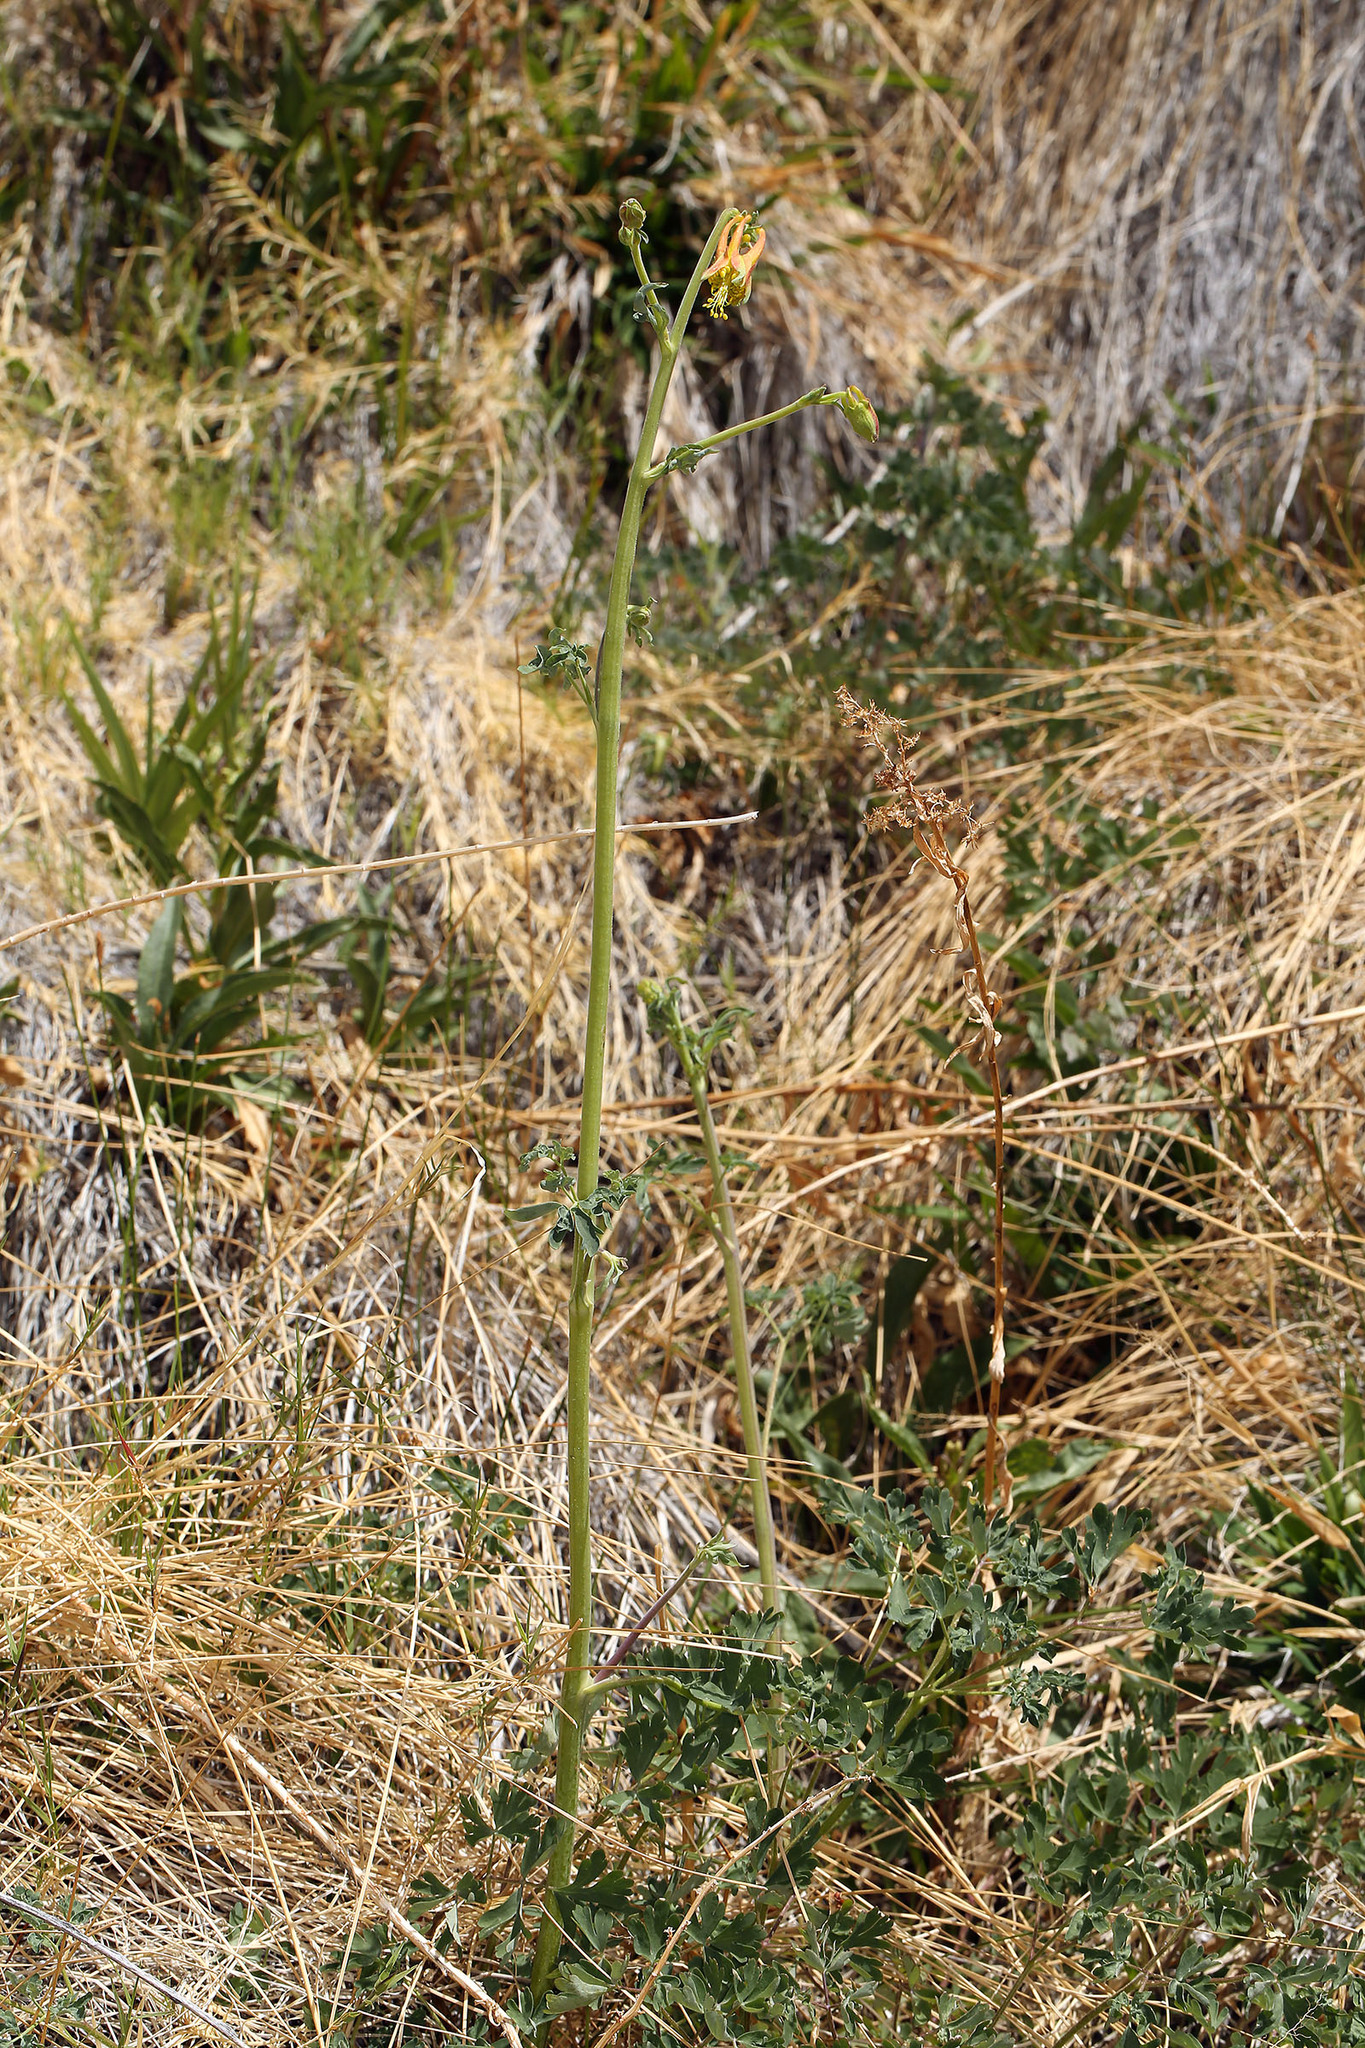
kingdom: Plantae
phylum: Tracheophyta
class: Magnoliopsida
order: Ranunculales
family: Ranunculaceae
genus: Aquilegia
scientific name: Aquilegia formosa
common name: Sitka columbine
